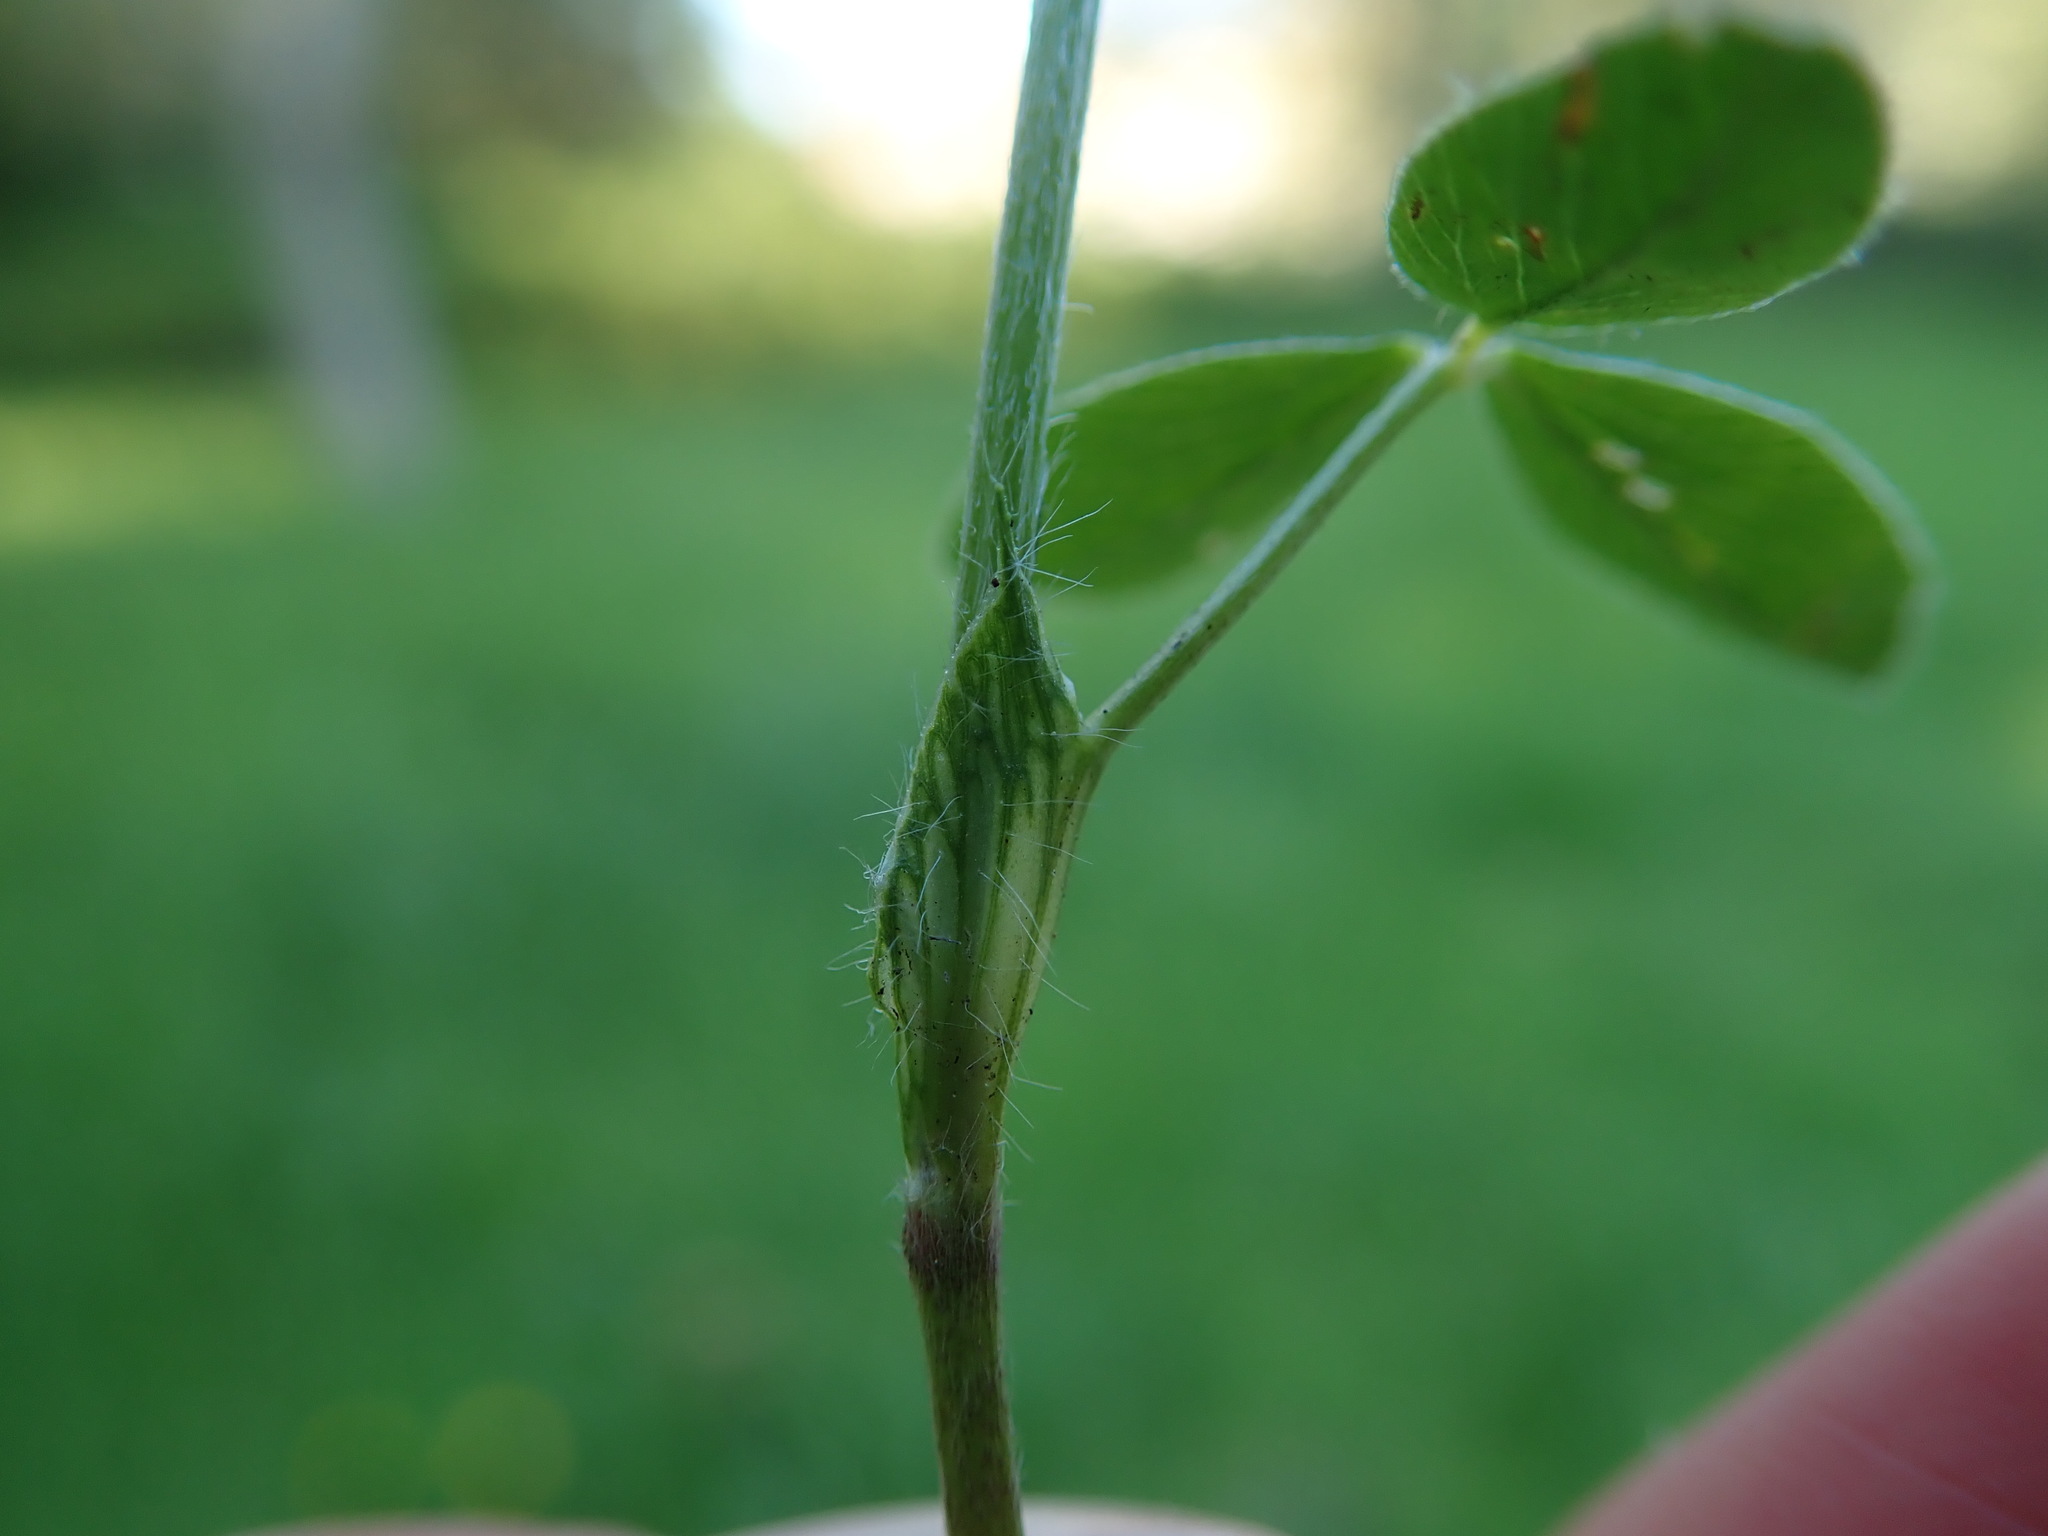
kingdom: Plantae
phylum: Tracheophyta
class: Magnoliopsida
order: Fabales
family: Fabaceae
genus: Trifolium
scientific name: Trifolium pratense
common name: Red clover
